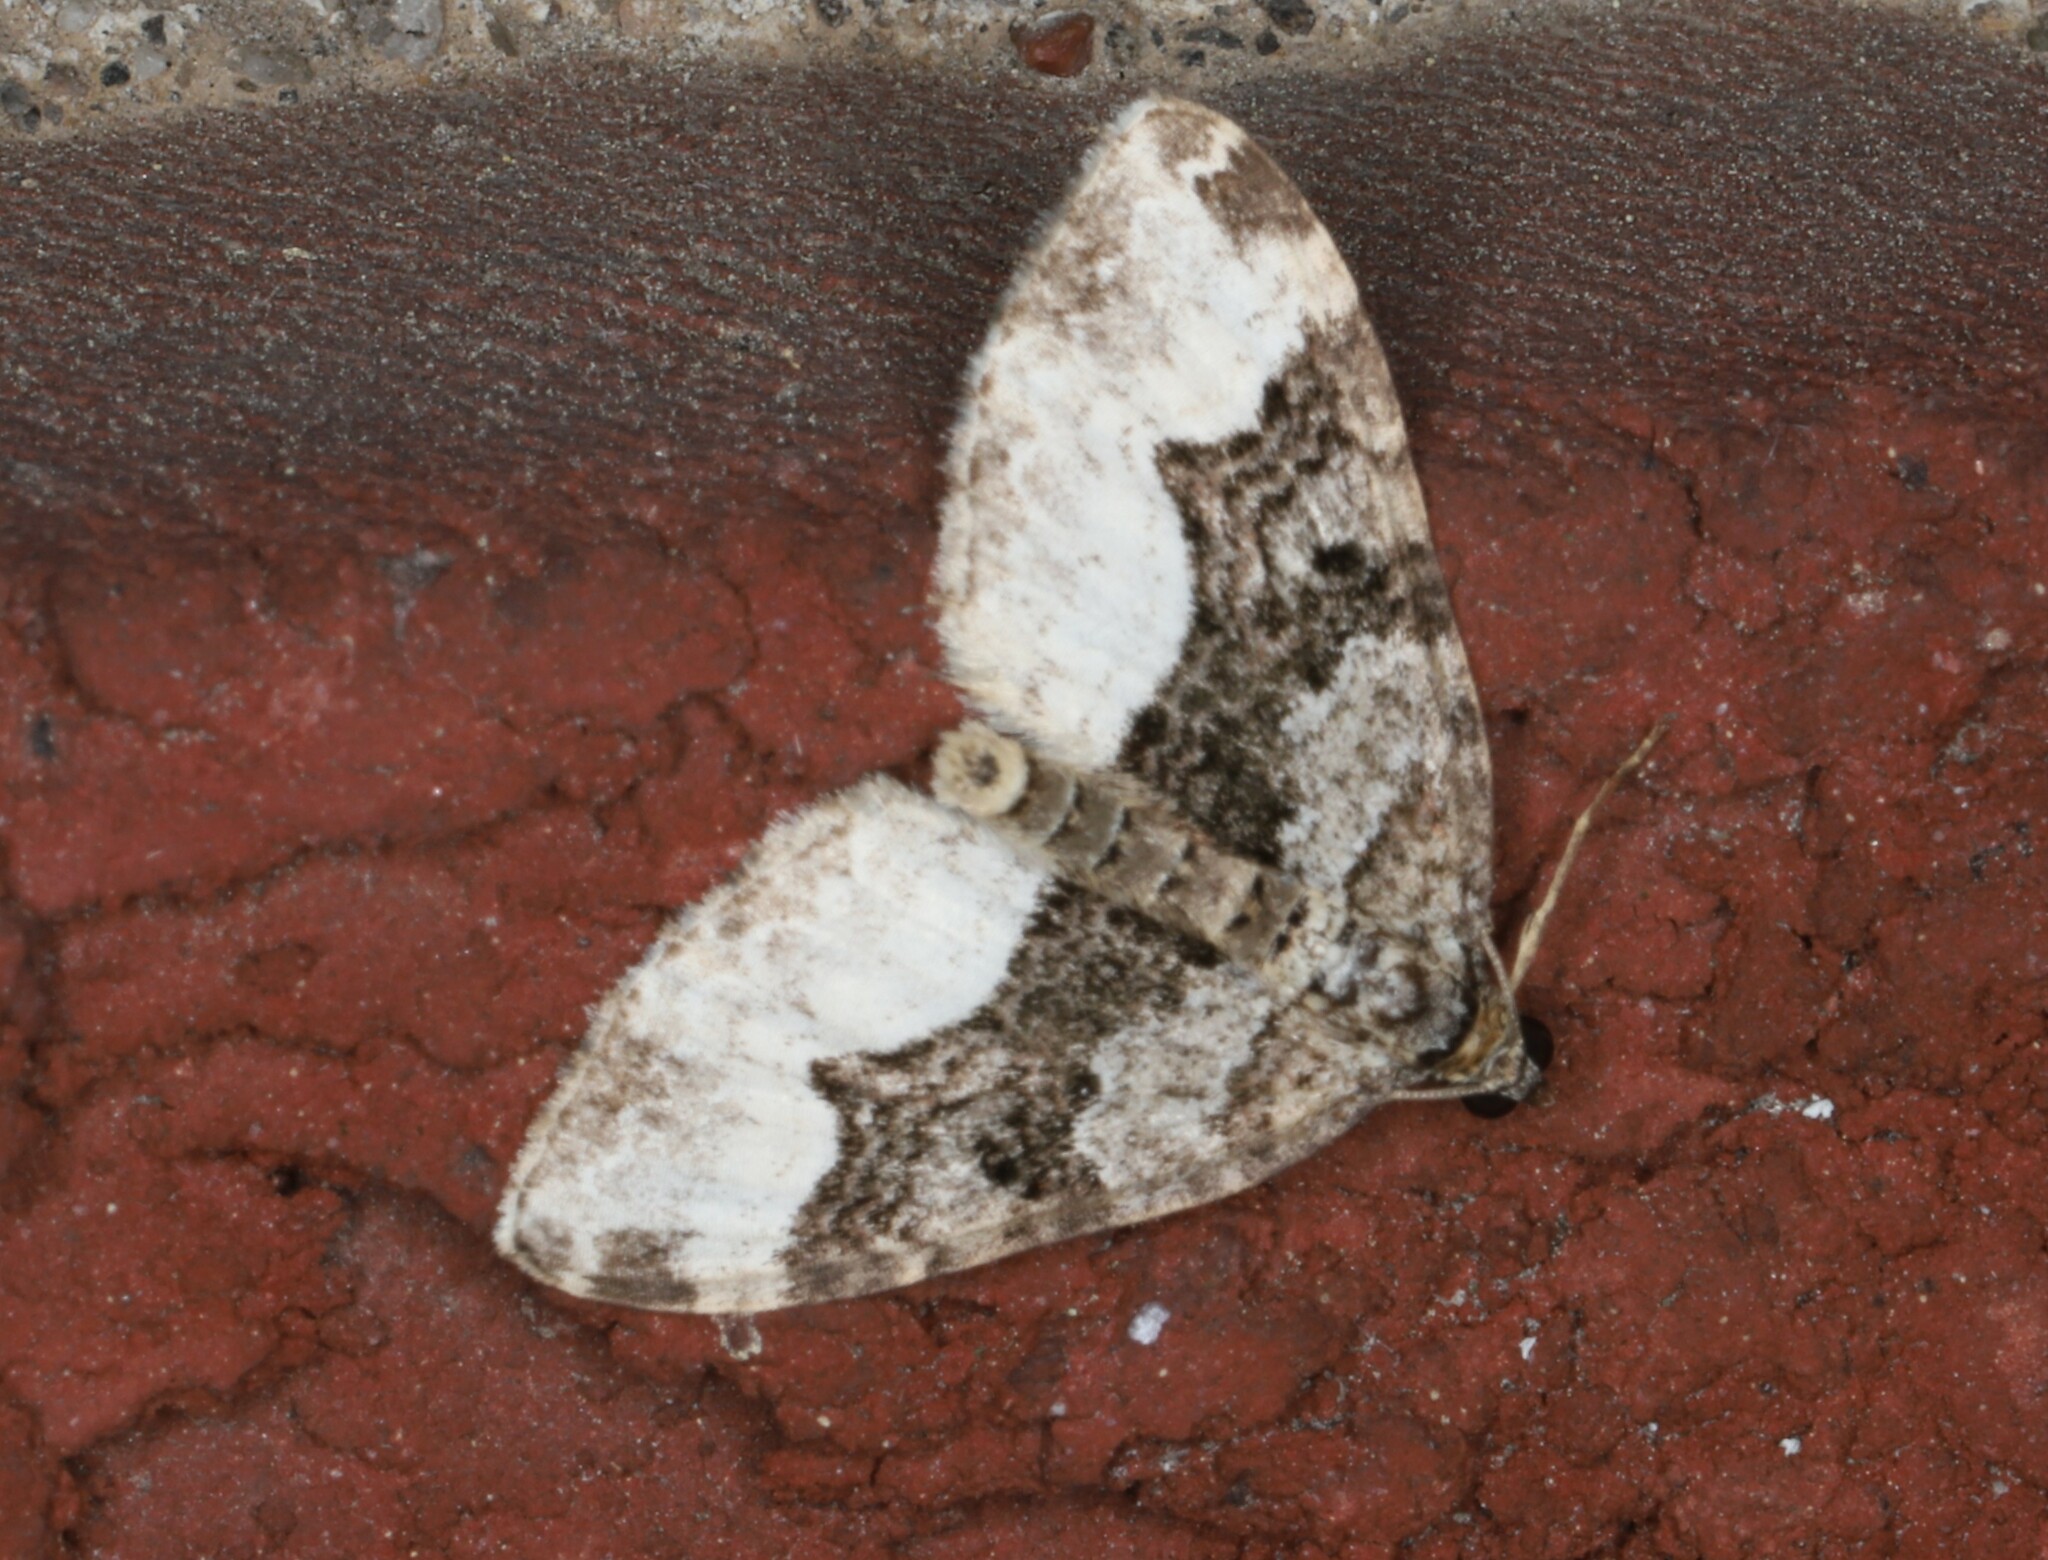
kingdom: Animalia
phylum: Arthropoda
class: Insecta
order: Lepidoptera
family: Geometridae
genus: Euphyia
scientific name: Euphyia intermediata
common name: Sharp-angled carpet
